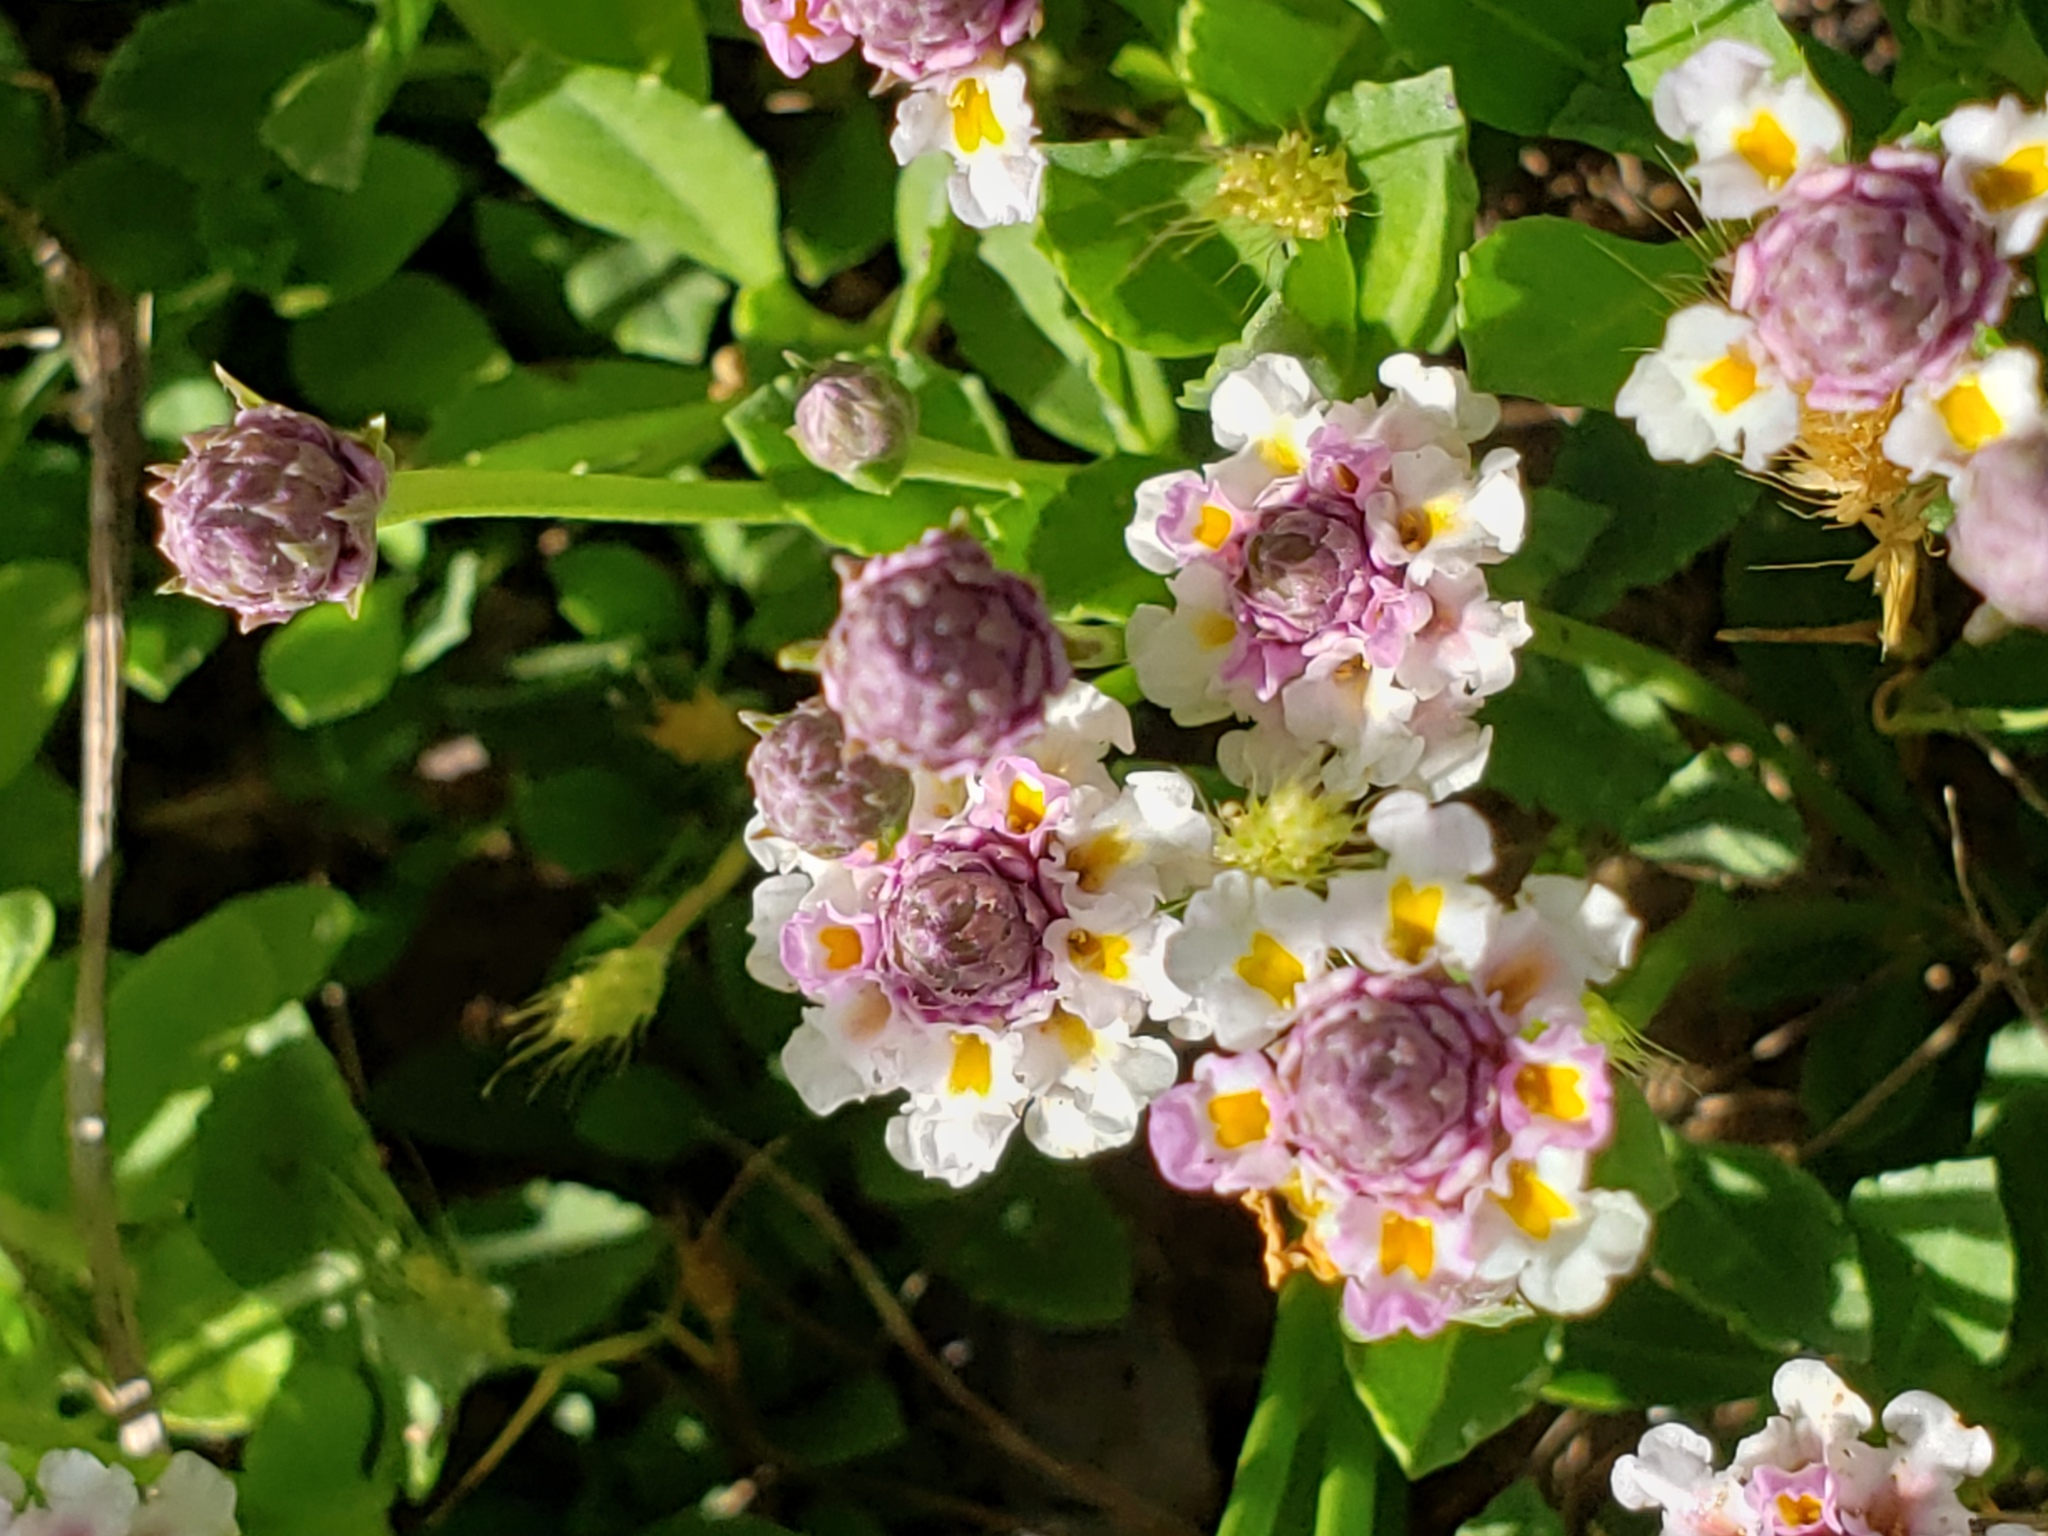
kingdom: Plantae
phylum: Tracheophyta
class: Magnoliopsida
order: Lamiales
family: Verbenaceae
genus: Phyla
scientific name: Phyla nodiflora
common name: Frogfruit
